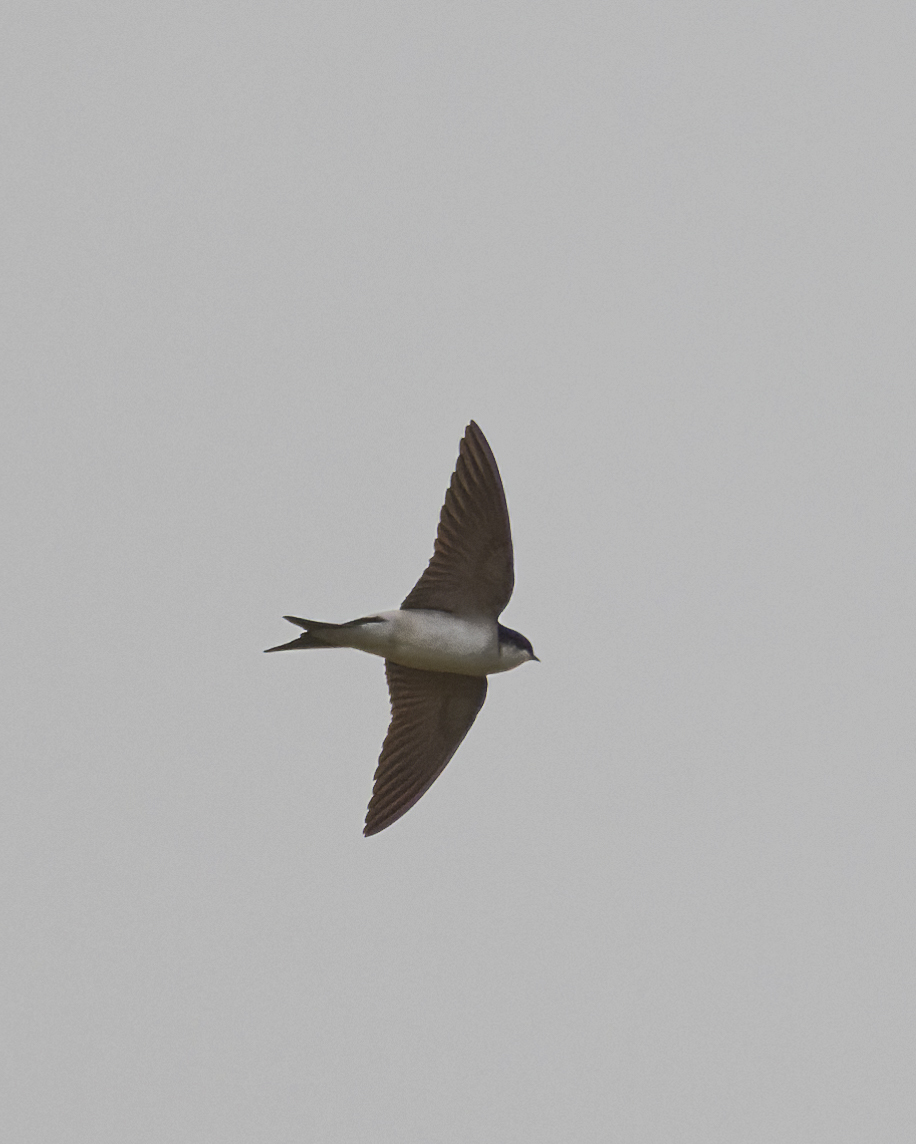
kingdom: Animalia
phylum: Chordata
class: Aves
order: Passeriformes
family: Hirundinidae
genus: Delichon
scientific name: Delichon urbicum
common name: Common house martin
